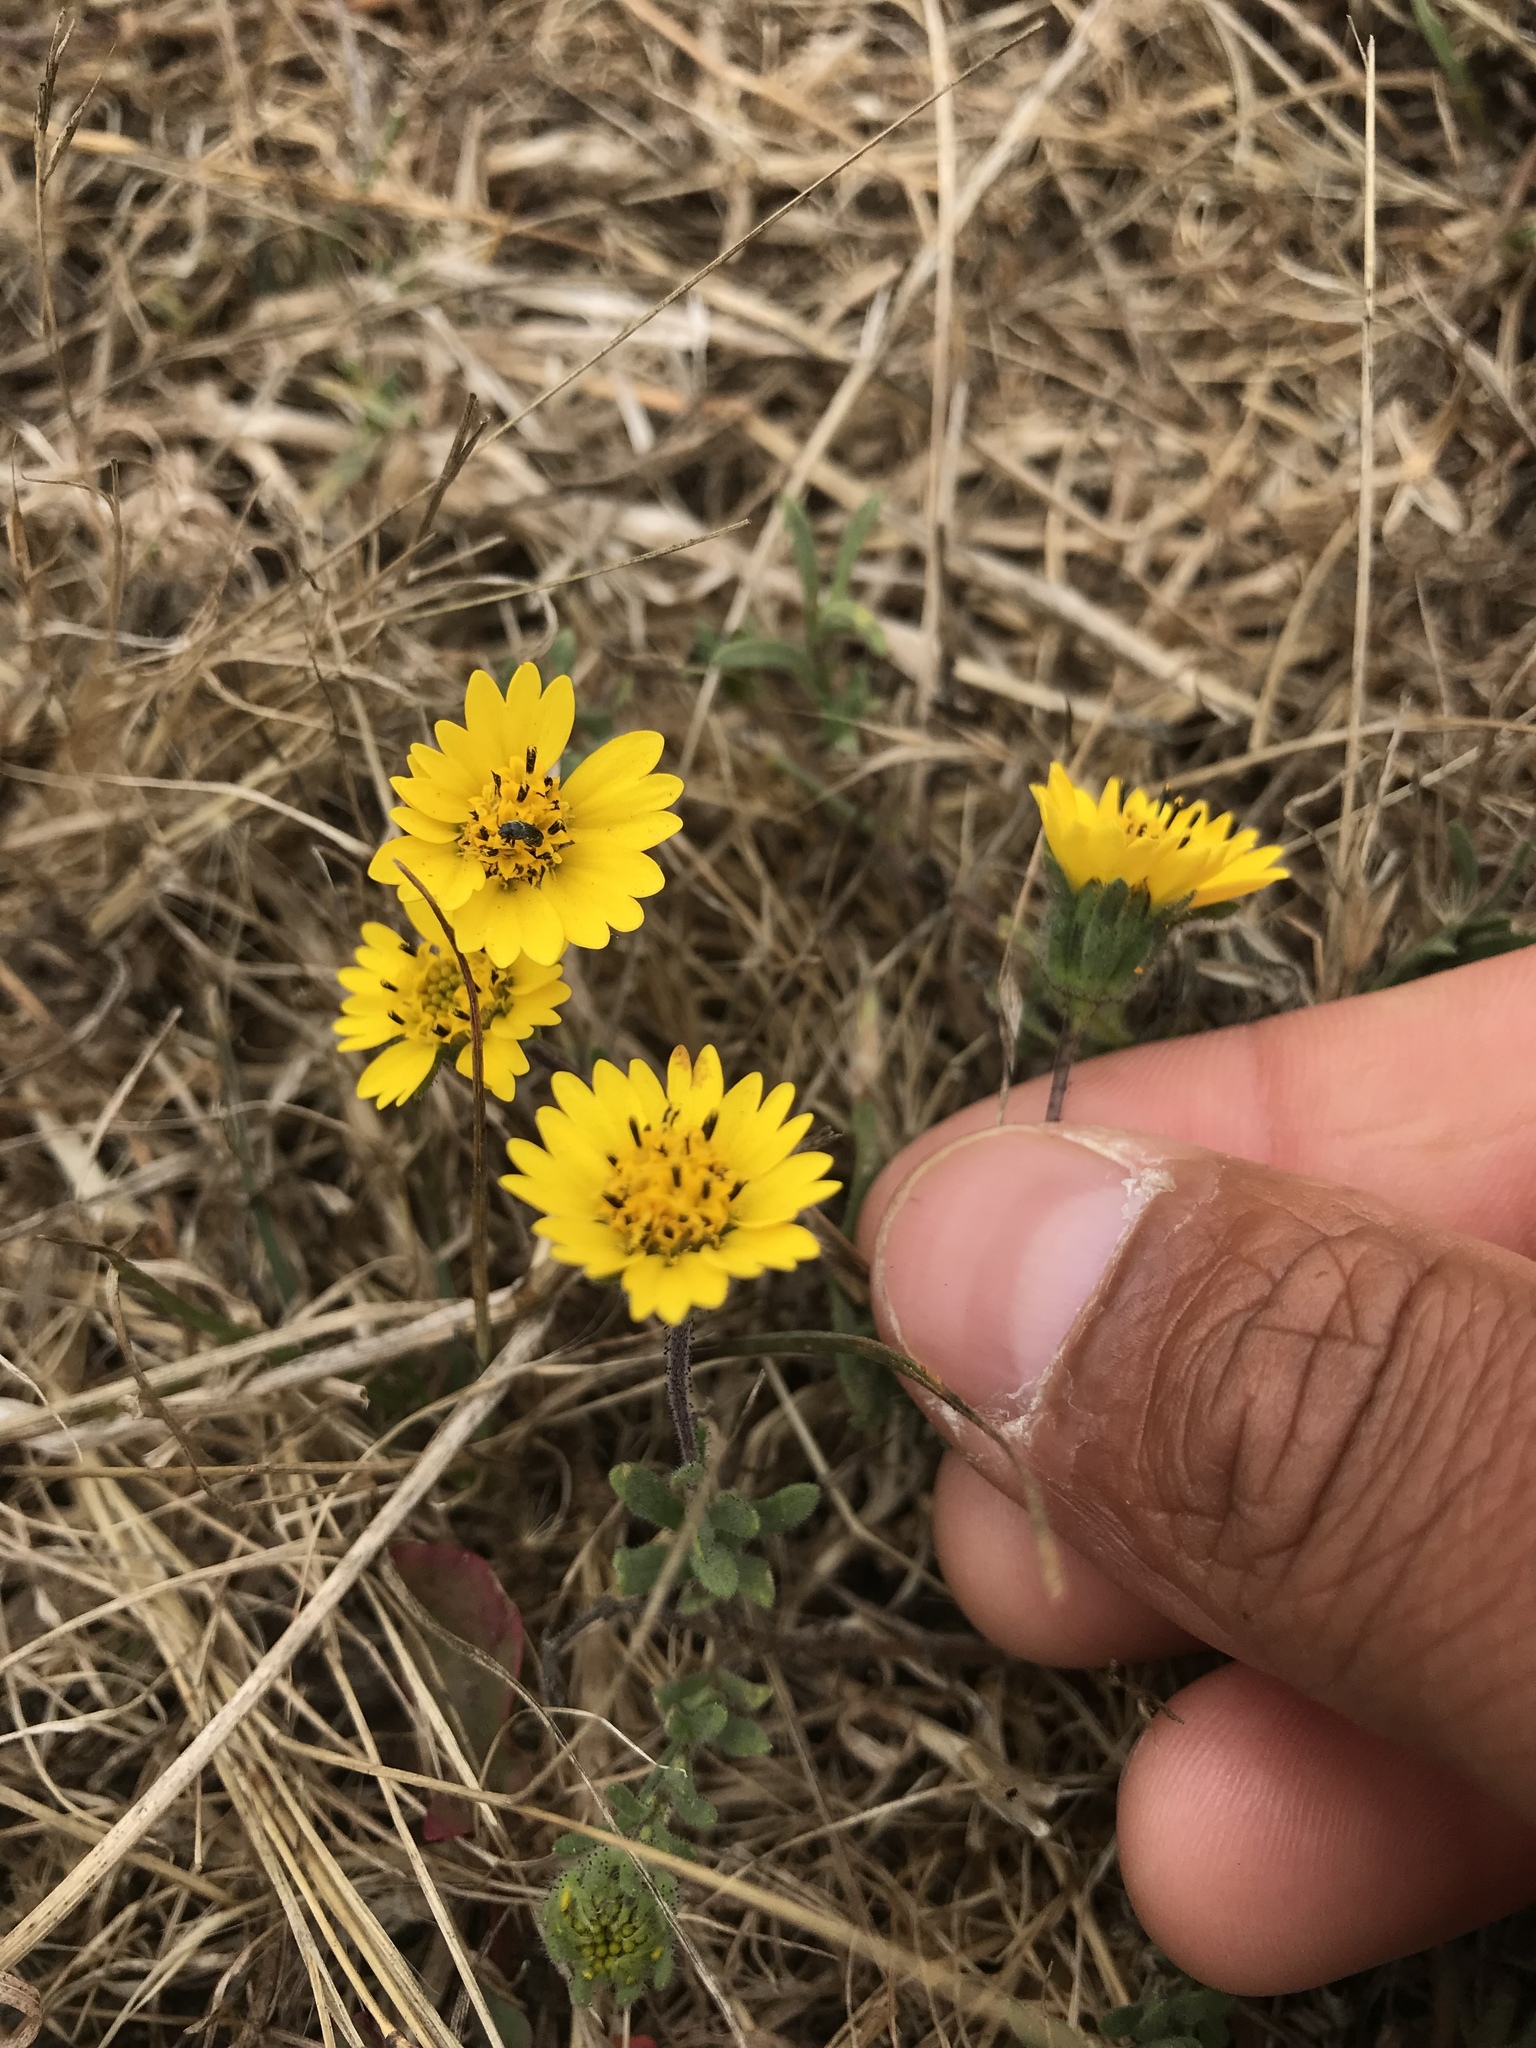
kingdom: Plantae
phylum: Tracheophyta
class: Magnoliopsida
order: Asterales
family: Asteraceae
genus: Layia
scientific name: Layia platyglossa
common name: Tidy-tips
